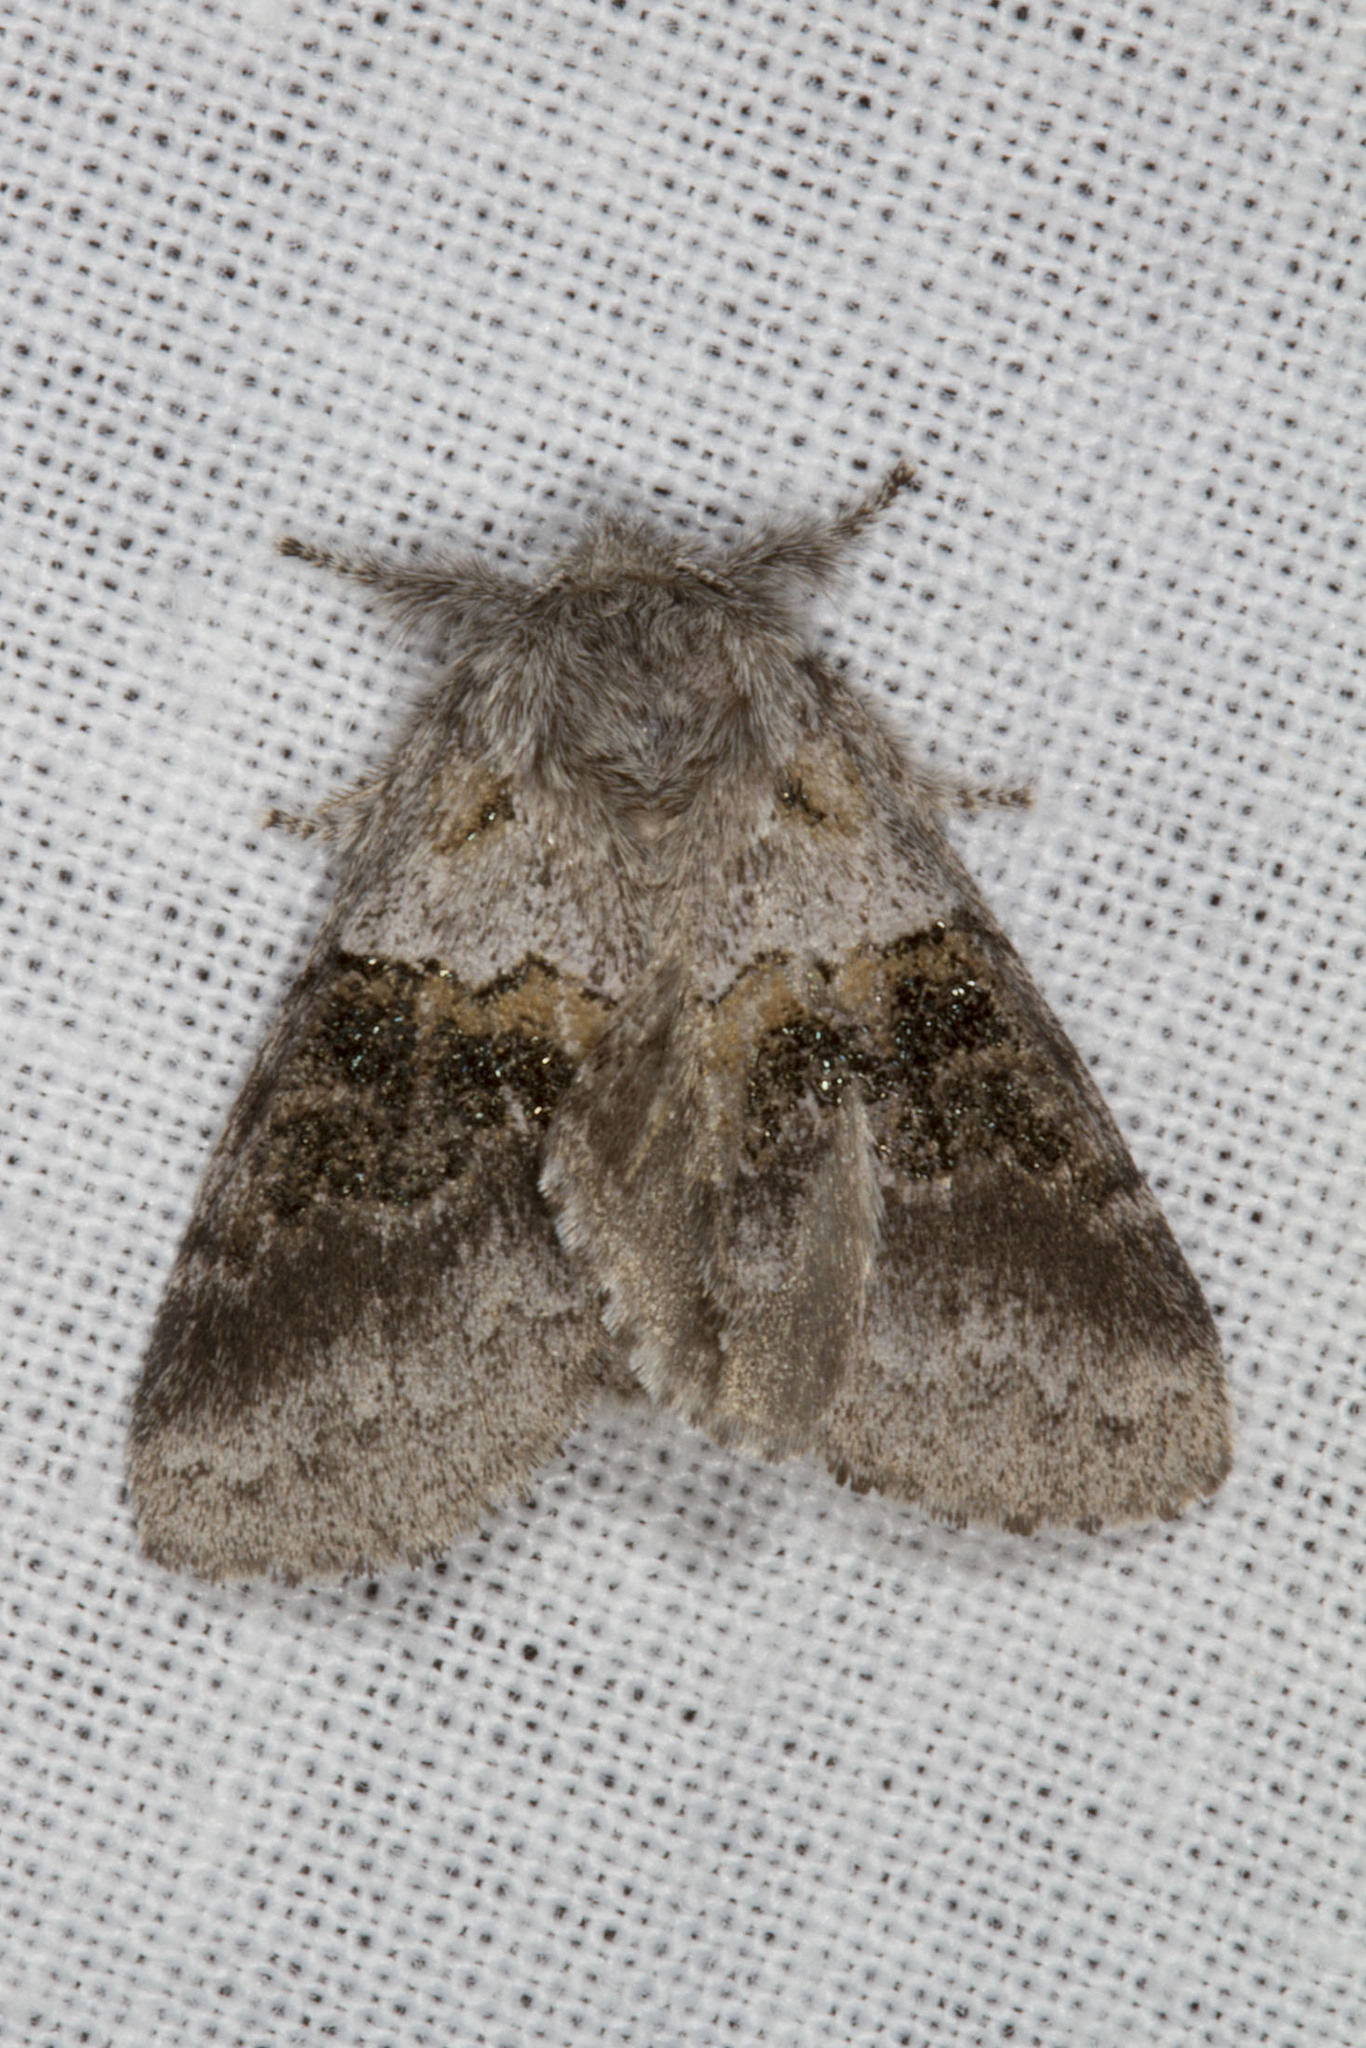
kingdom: Animalia
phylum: Arthropoda
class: Insecta
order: Lepidoptera
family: Notodontidae
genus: Gluphisia
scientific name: Gluphisia septentrionis
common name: Common gluphisia
